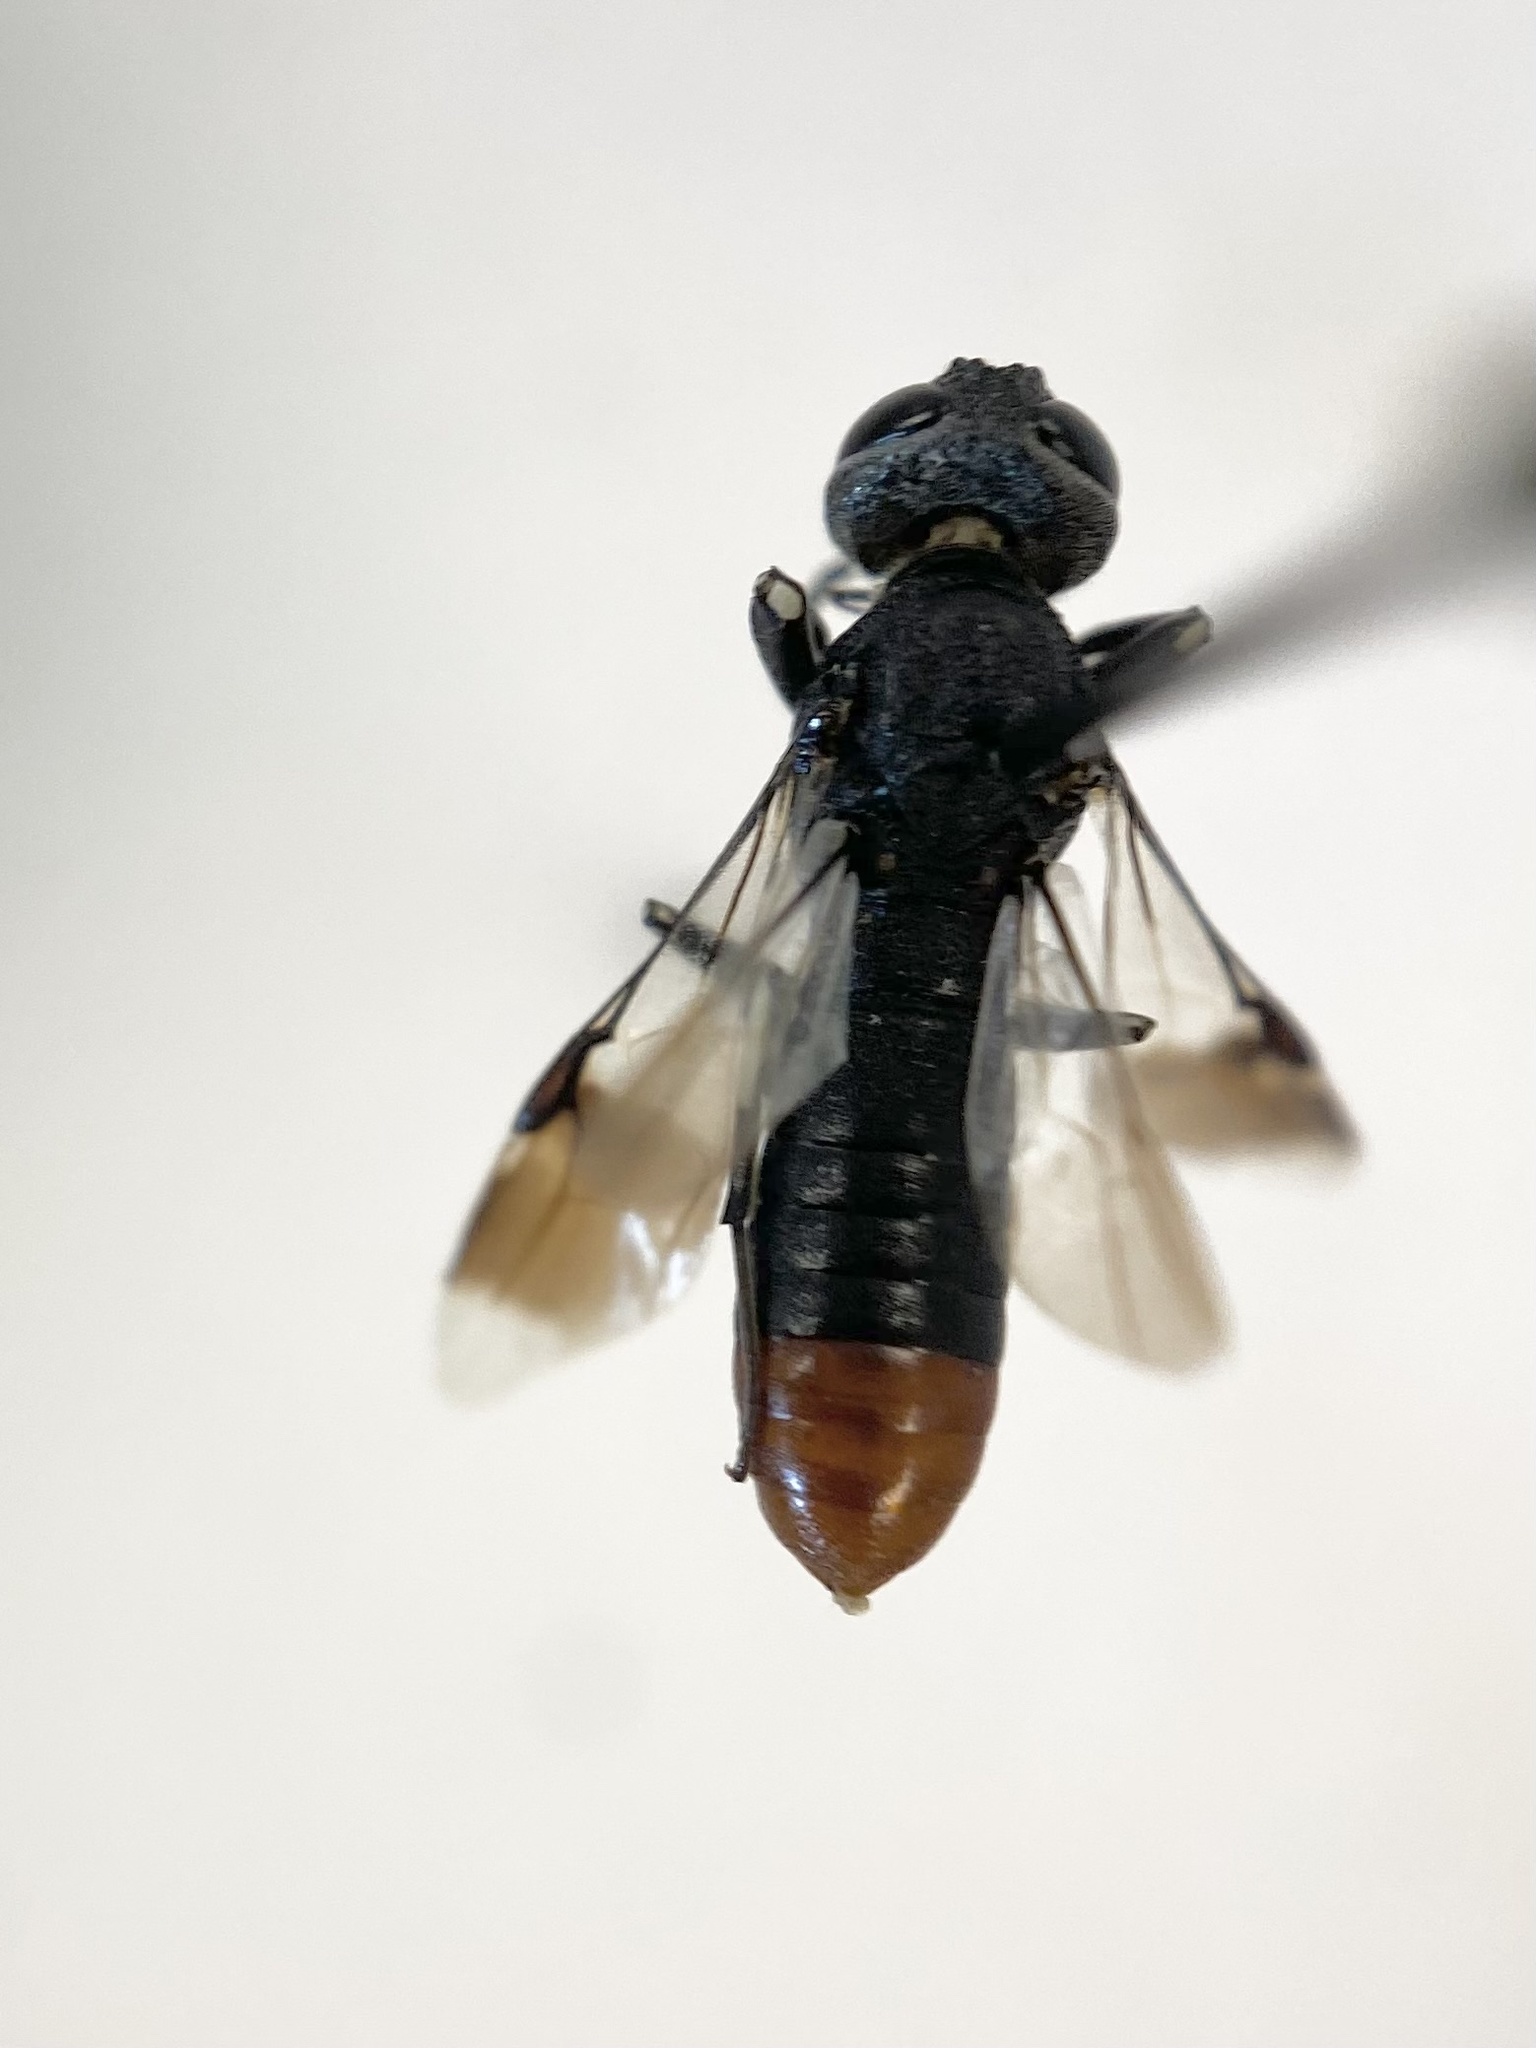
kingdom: Animalia
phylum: Arthropoda
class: Insecta
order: Hymenoptera
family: Orussusidae
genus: Orussus
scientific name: Orussus terminalis
